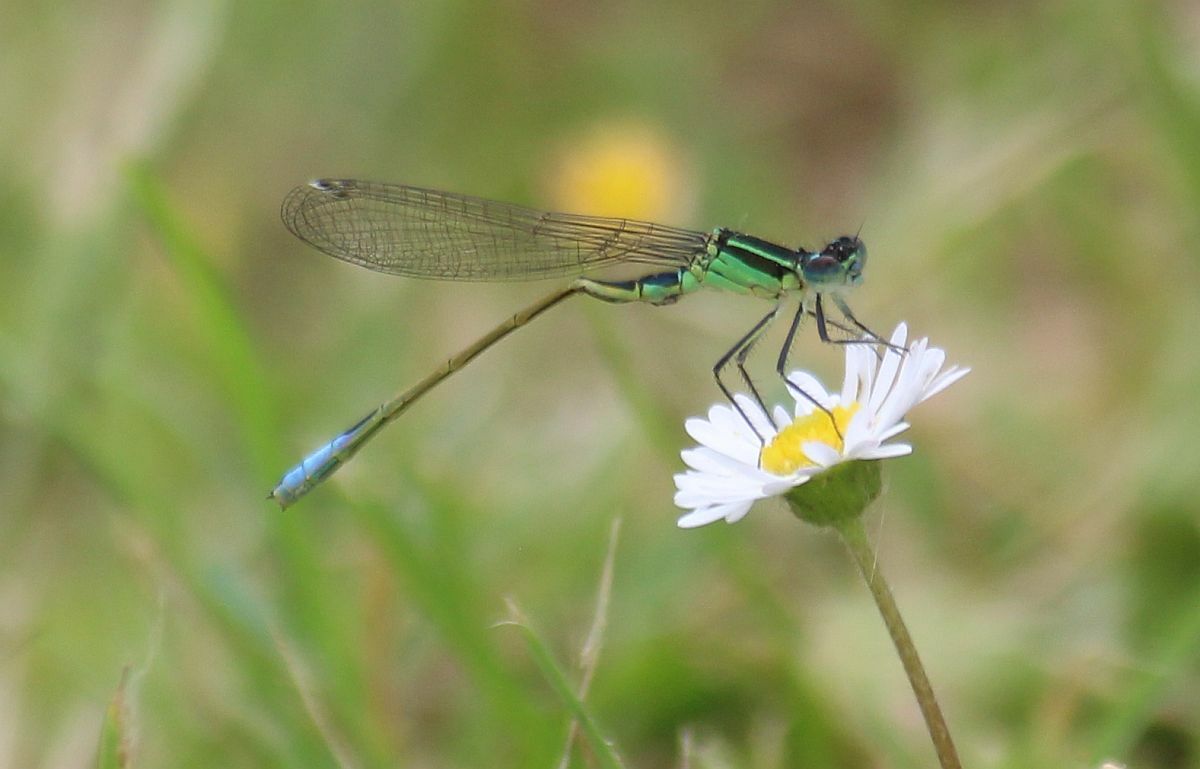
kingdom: Animalia
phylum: Arthropoda
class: Insecta
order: Odonata
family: Coenagrionidae
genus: Ischnura
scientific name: Ischnura elegans
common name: Blue-tailed damselfly
